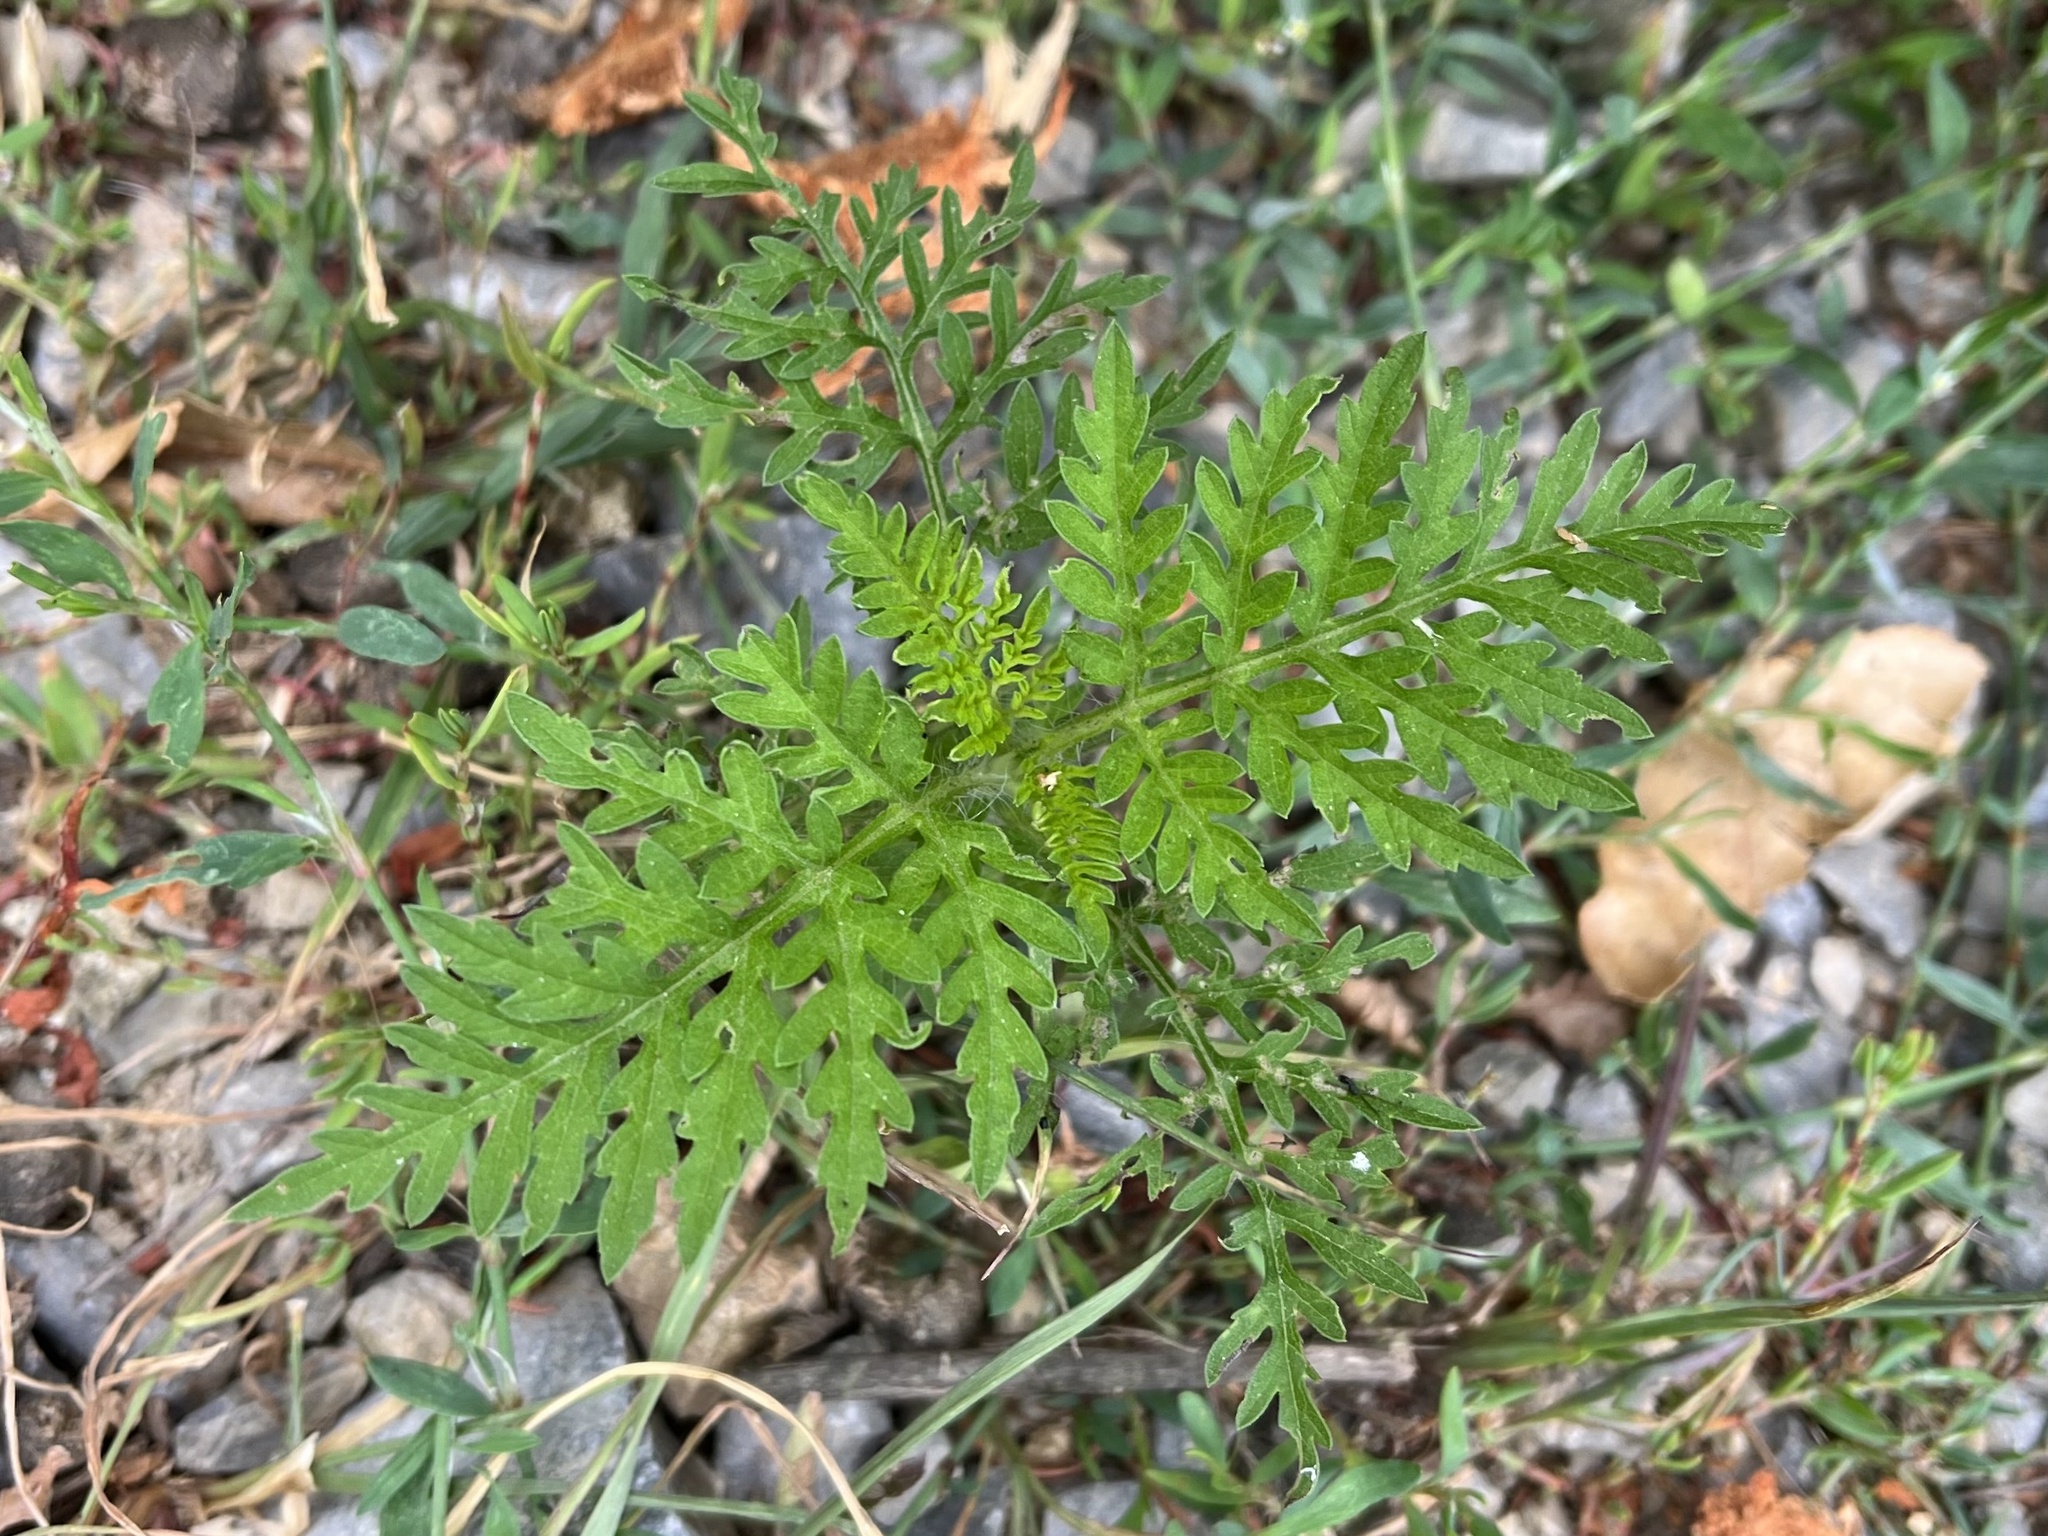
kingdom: Plantae
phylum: Tracheophyta
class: Magnoliopsida
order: Asterales
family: Asteraceae
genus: Ambrosia
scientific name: Ambrosia artemisiifolia
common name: Annual ragweed
